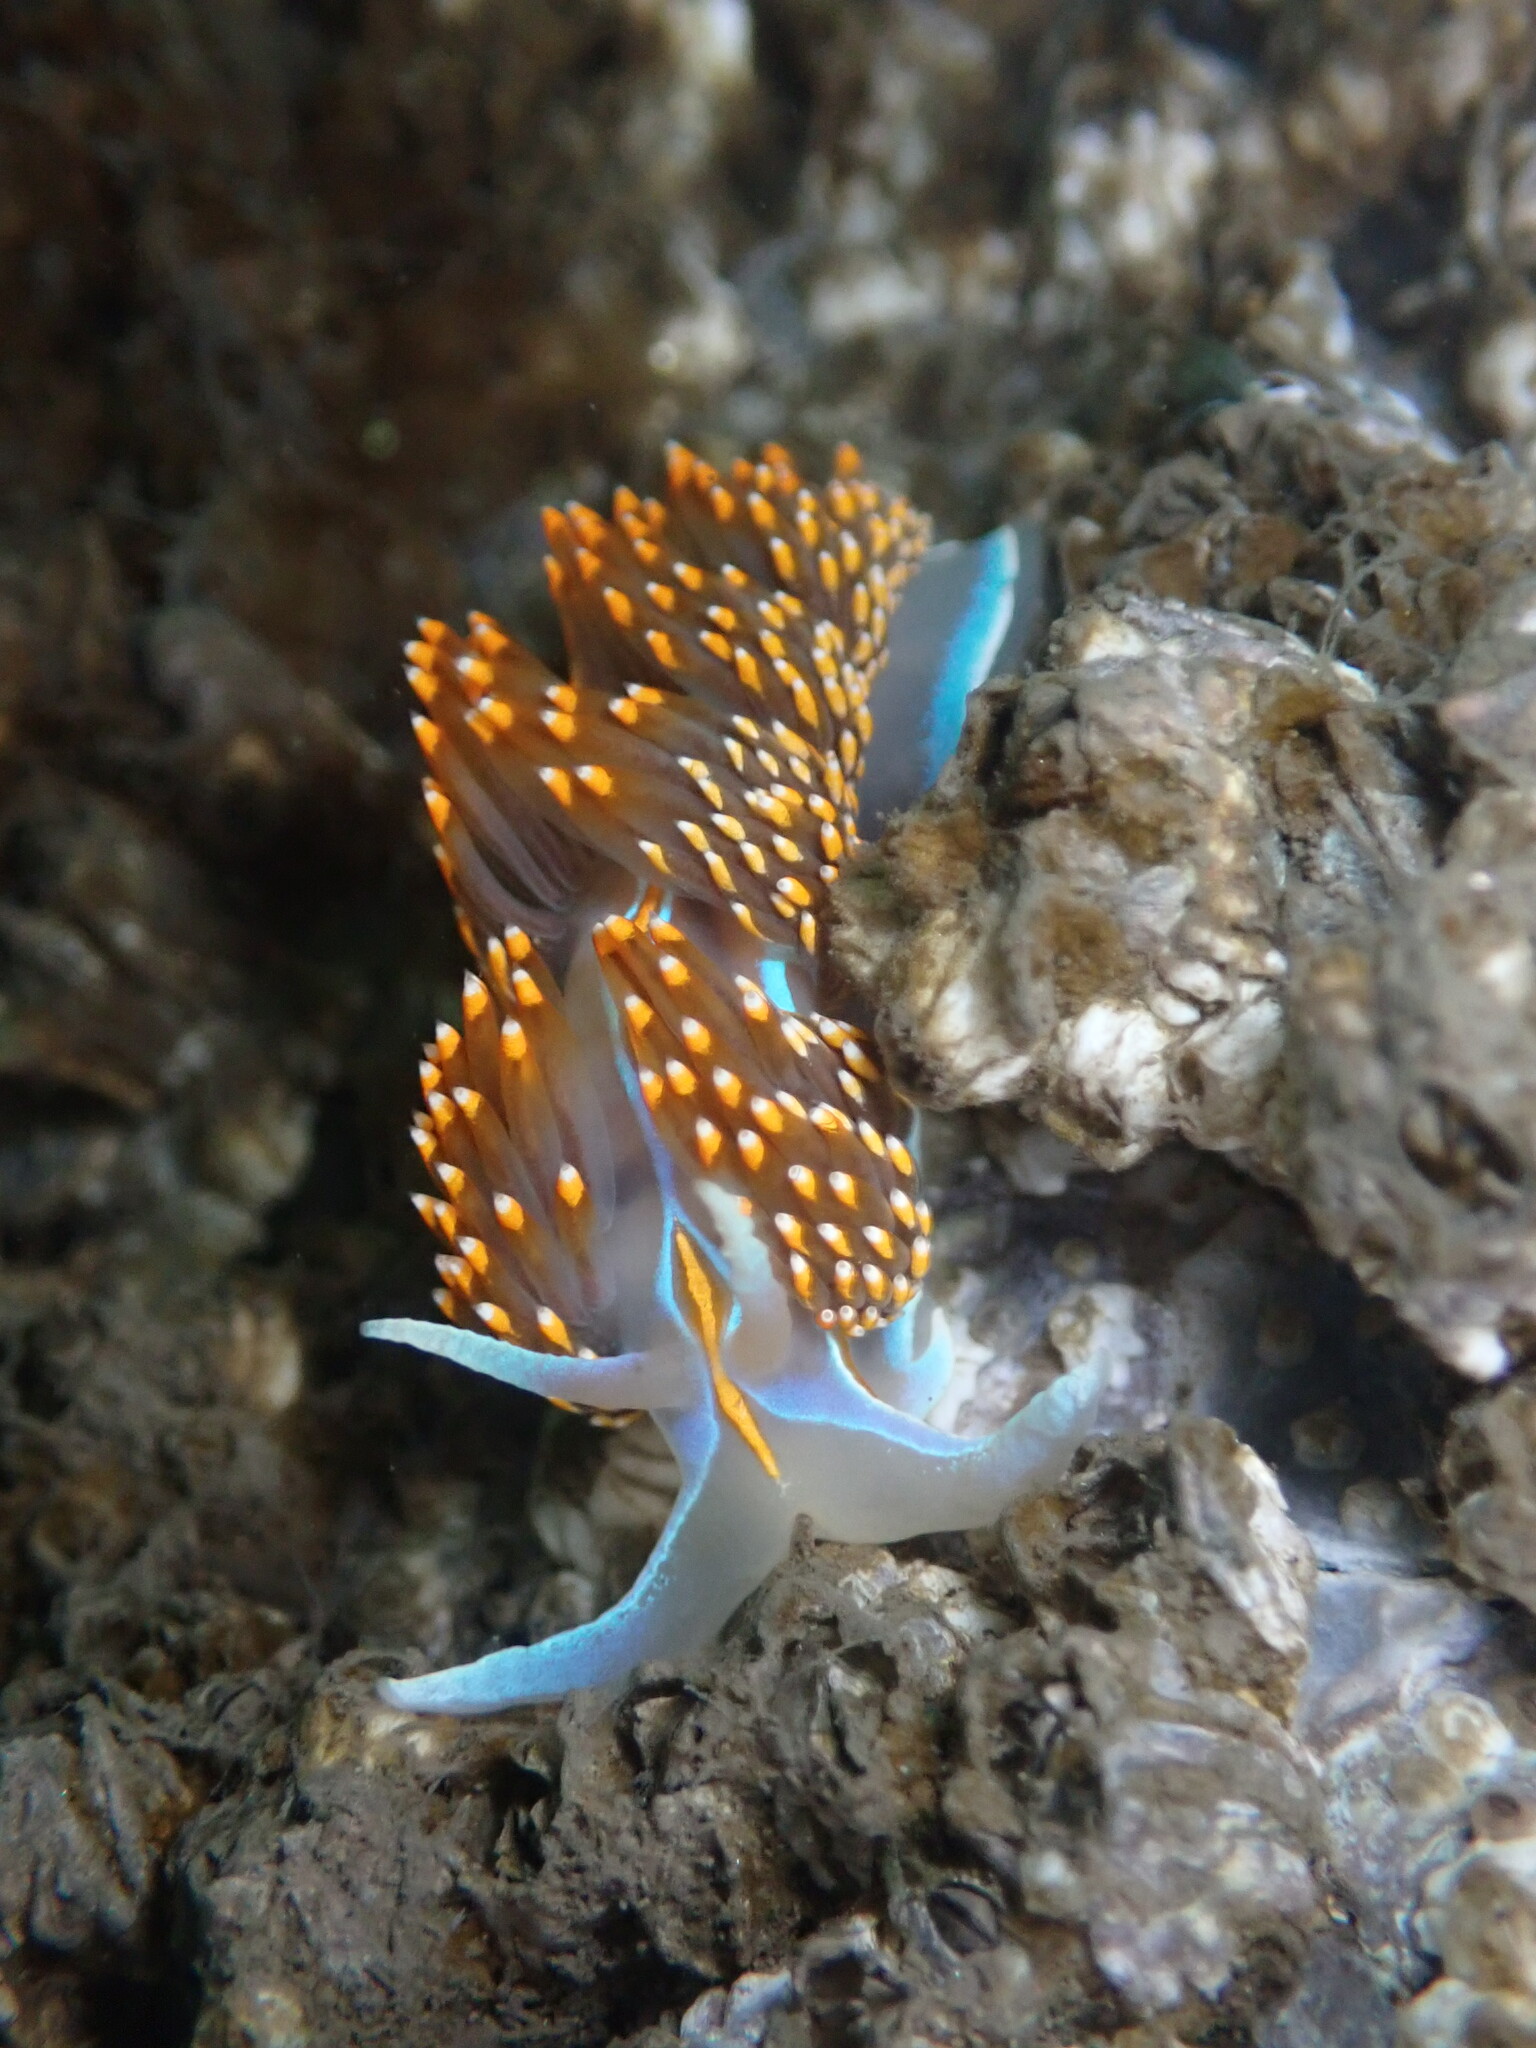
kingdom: Animalia
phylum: Mollusca
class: Gastropoda
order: Nudibranchia
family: Myrrhinidae
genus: Hermissenda
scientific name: Hermissenda opalescens
